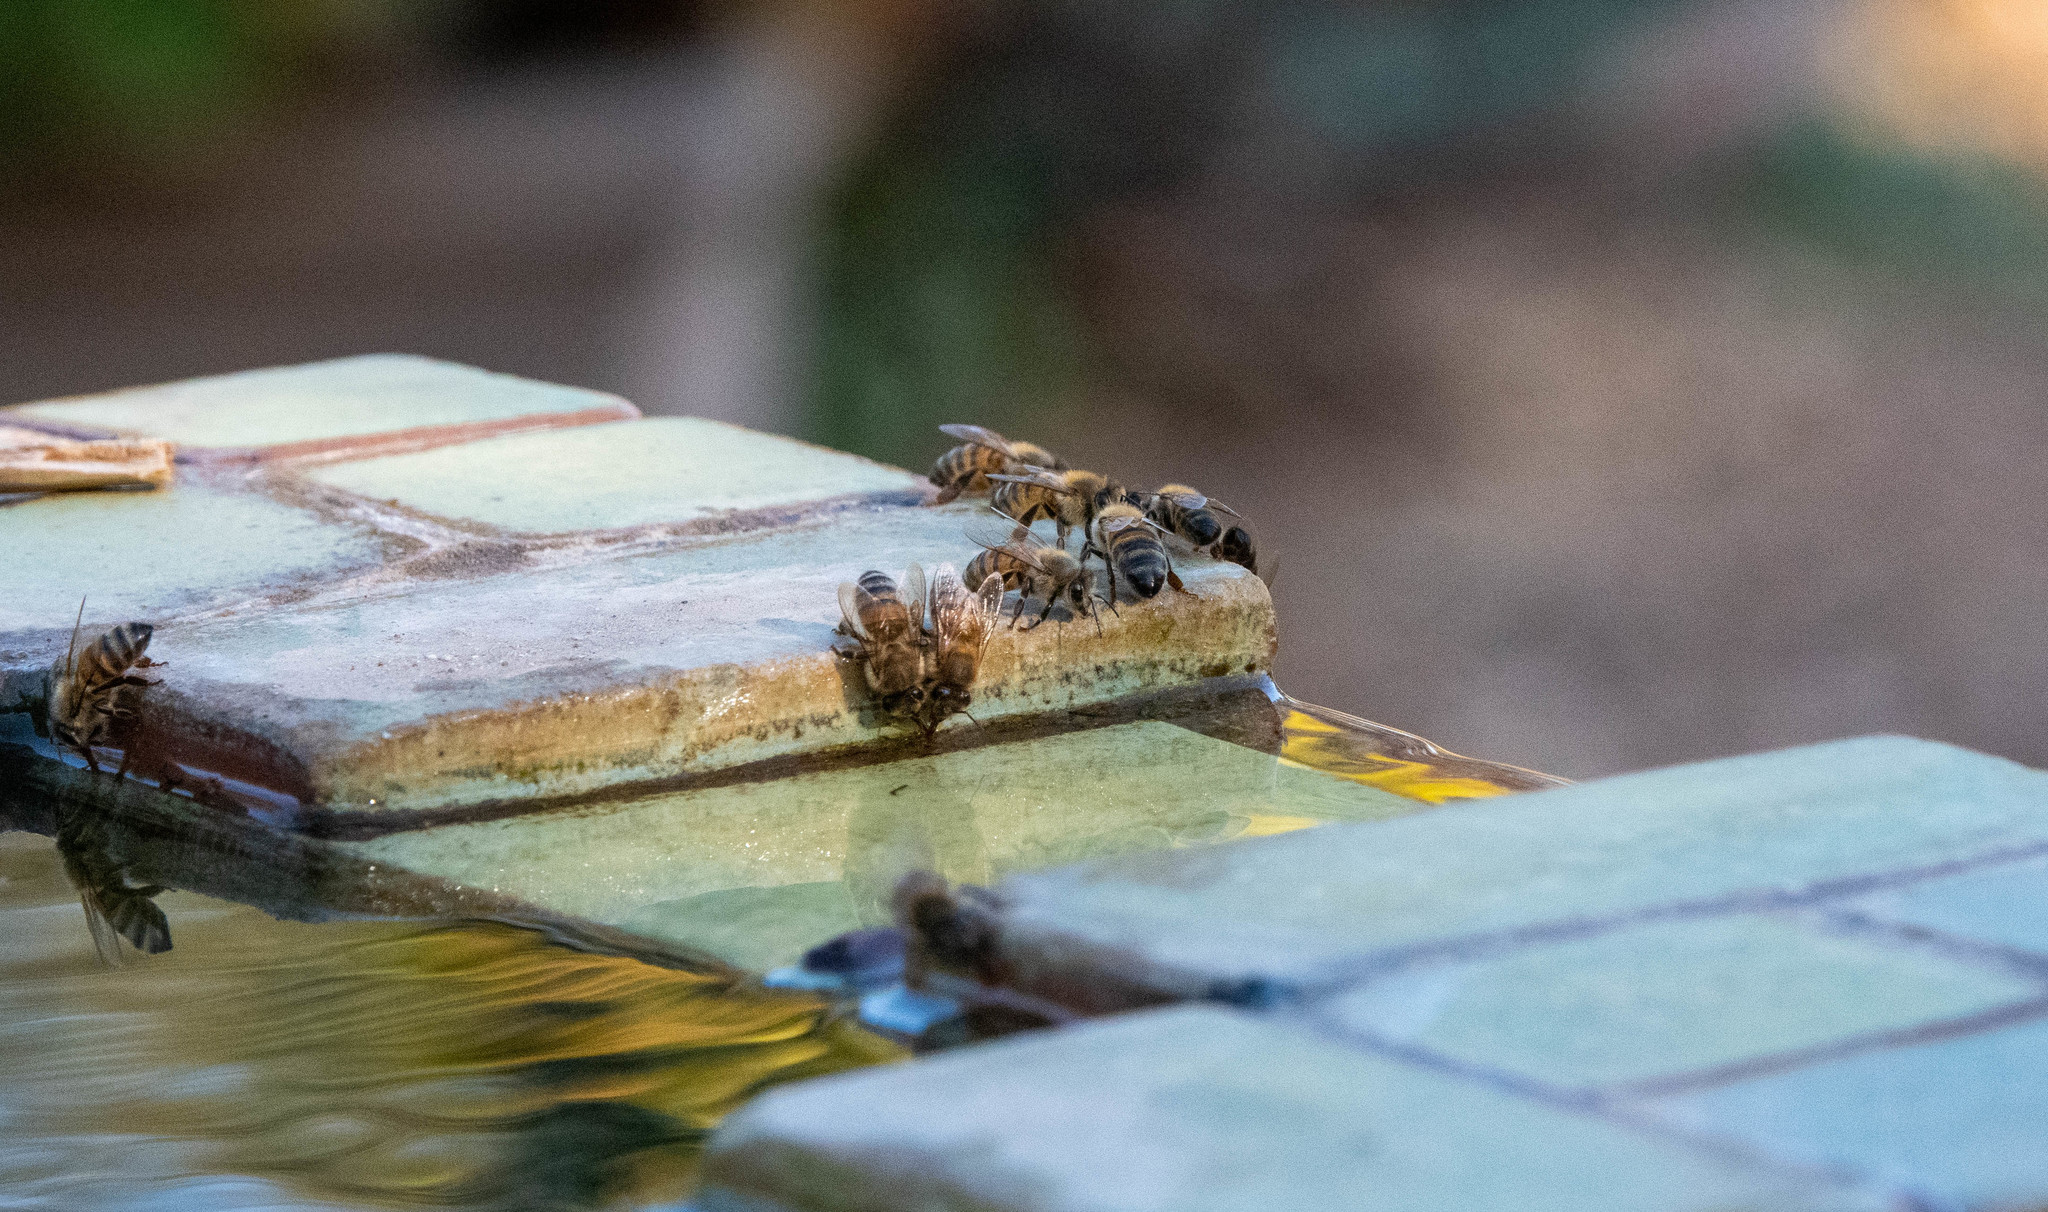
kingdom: Animalia
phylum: Arthropoda
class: Insecta
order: Hymenoptera
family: Apidae
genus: Apis
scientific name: Apis mellifera
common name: Honey bee
